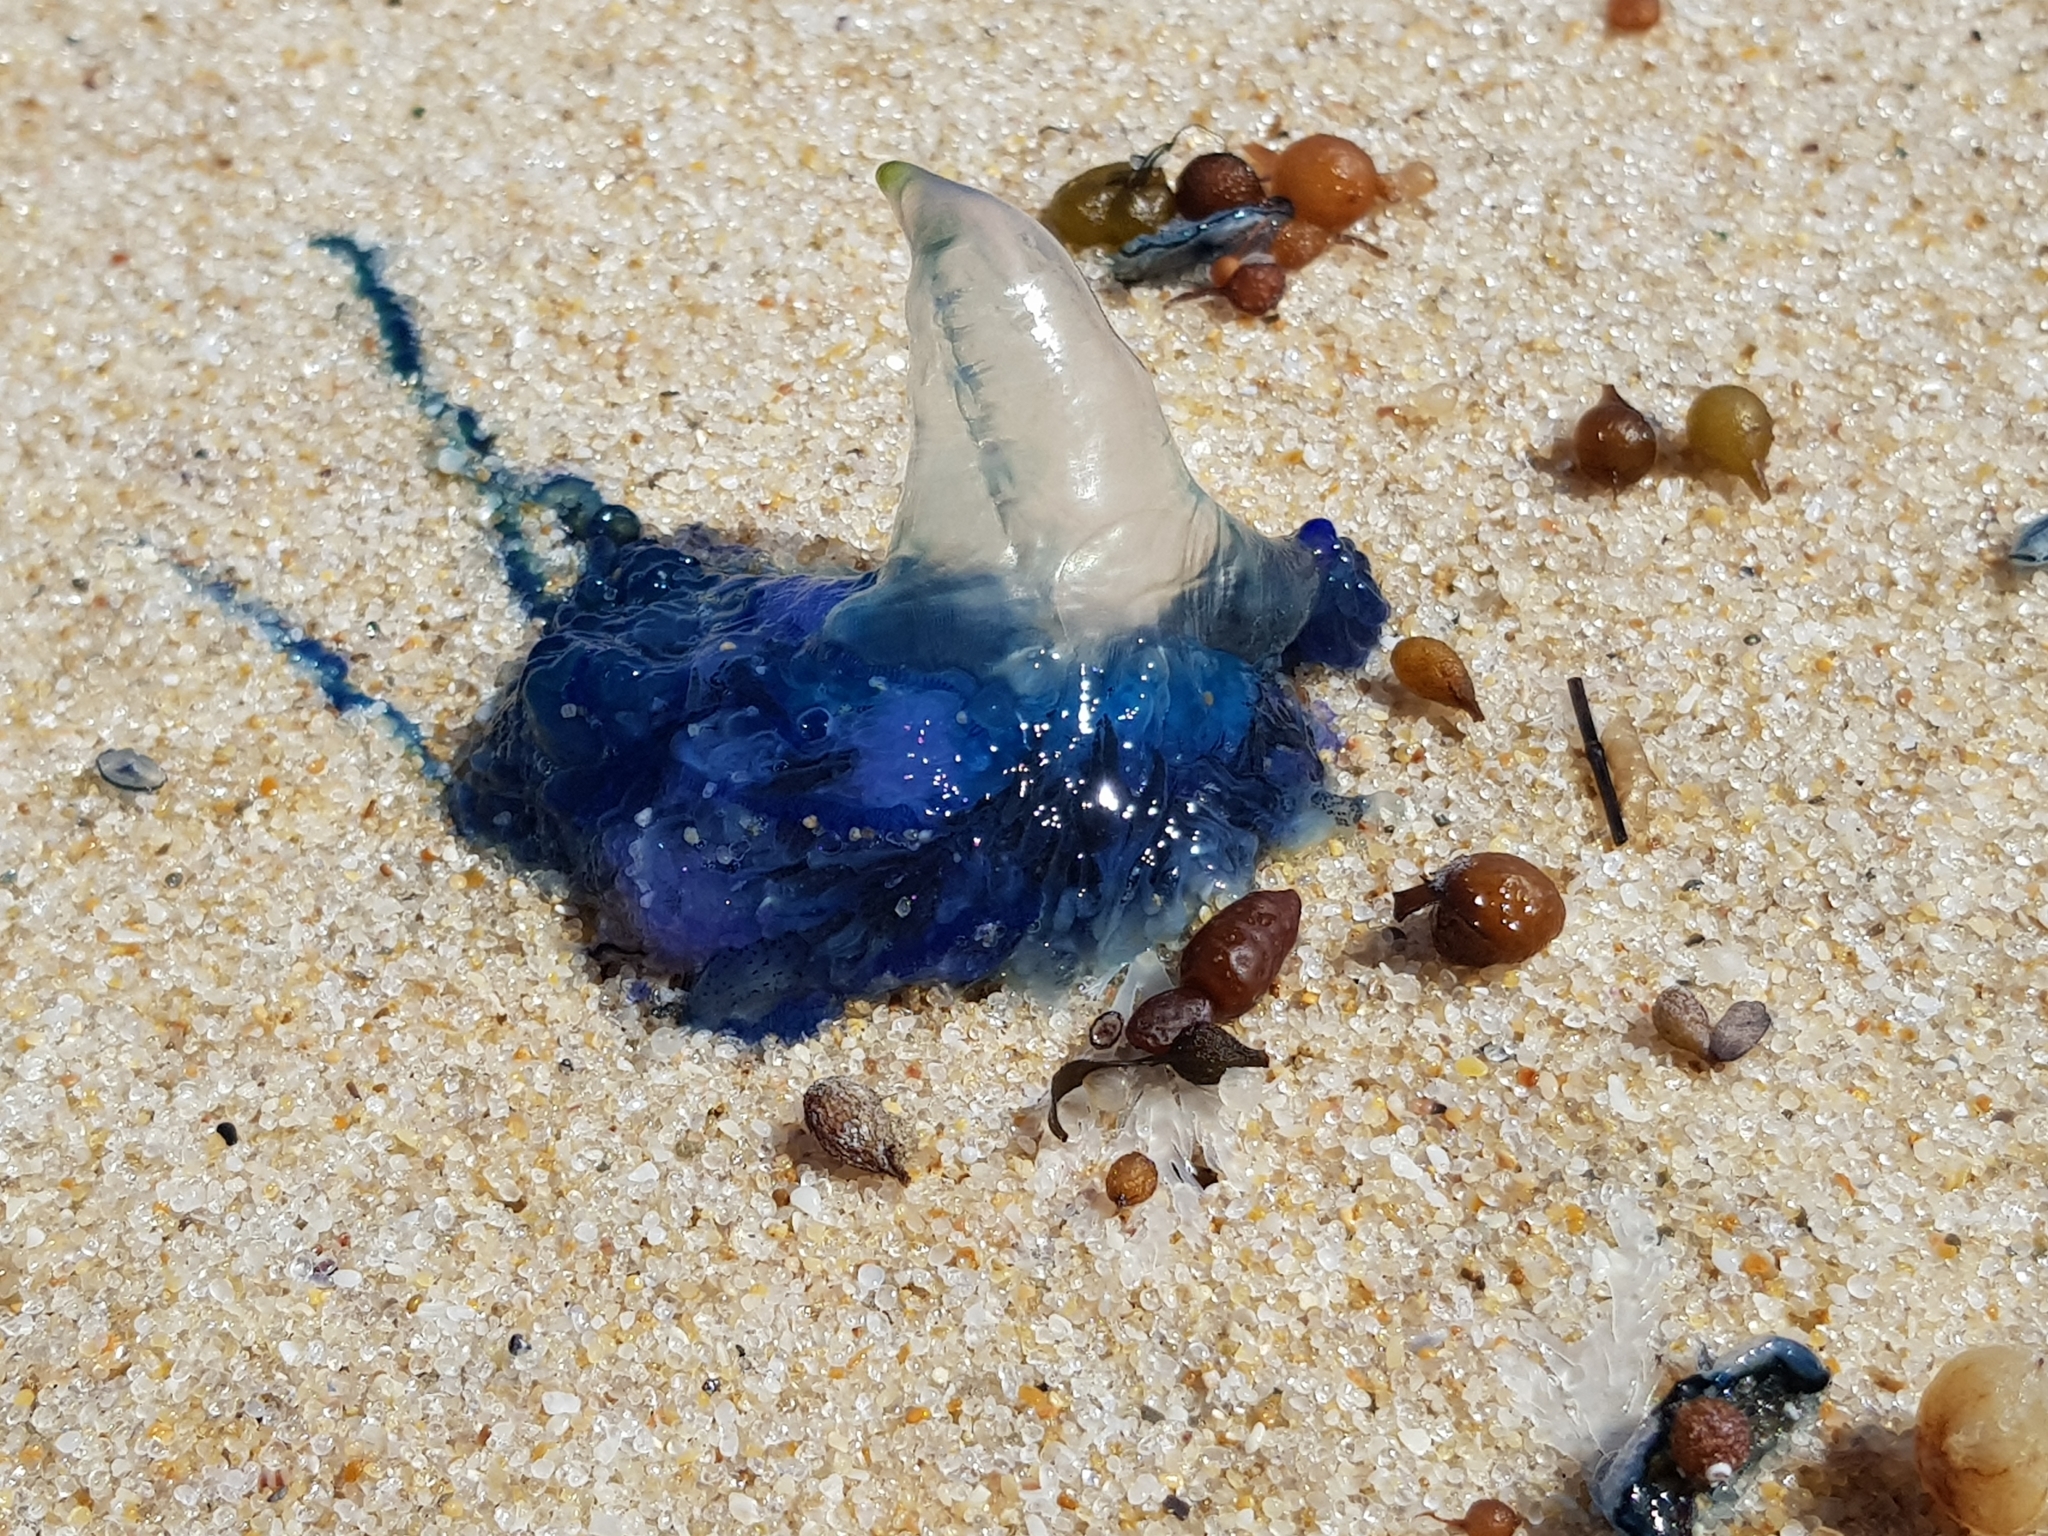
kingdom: Animalia
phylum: Cnidaria
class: Hydrozoa
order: Siphonophorae
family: Physaliidae
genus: Physalia
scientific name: Physalia physalis
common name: Portuguese man-of-war
